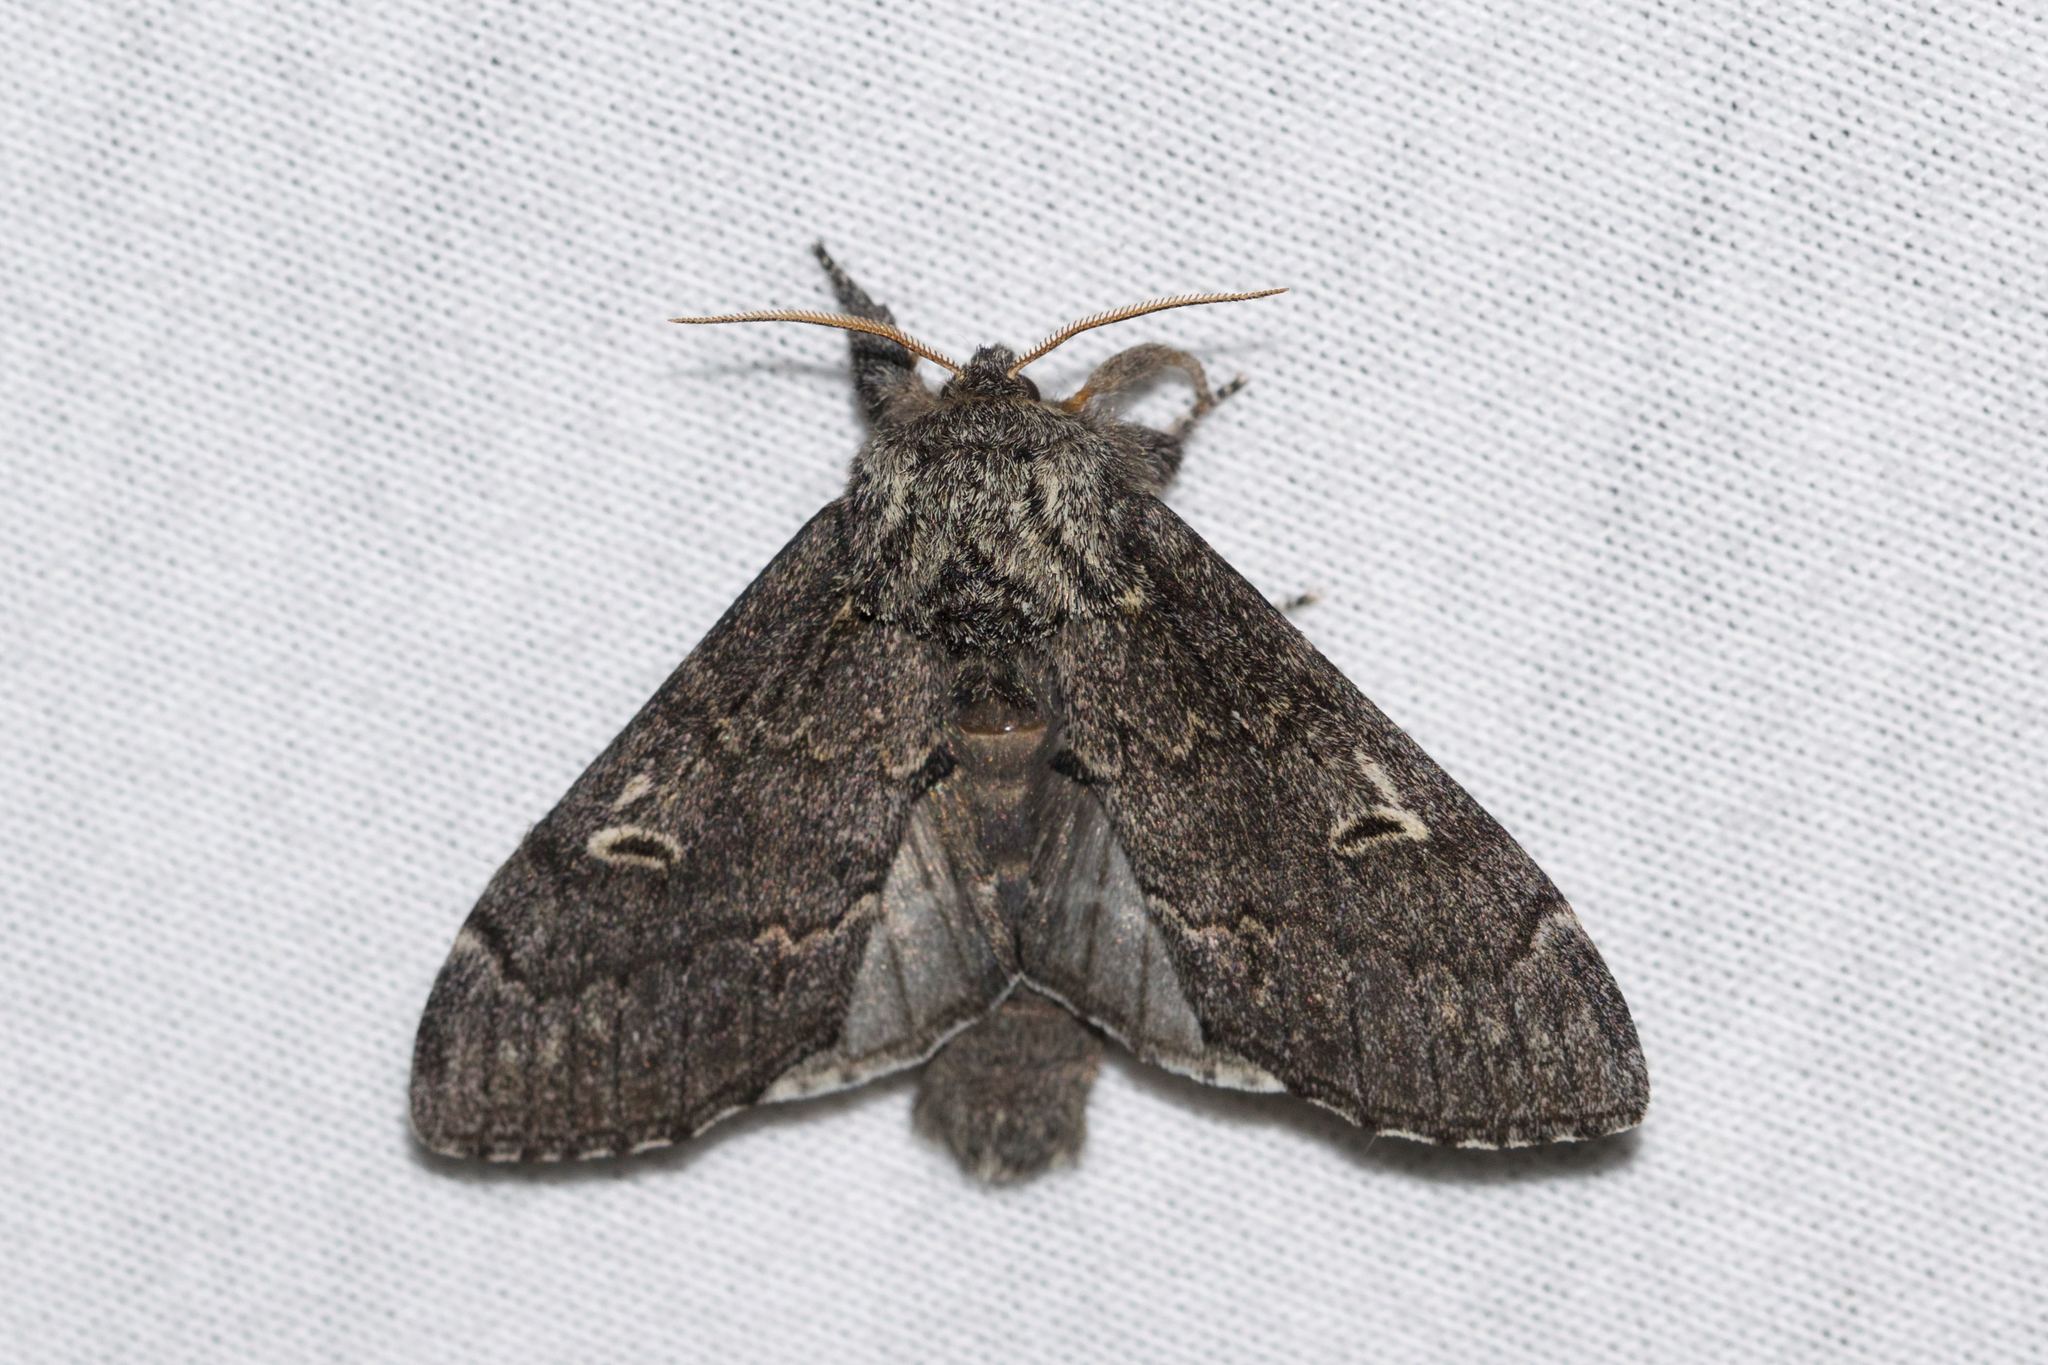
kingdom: Animalia
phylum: Arthropoda
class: Insecta
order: Lepidoptera
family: Notodontidae
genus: Notodonta
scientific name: Notodonta torva
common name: Large dark prominent
